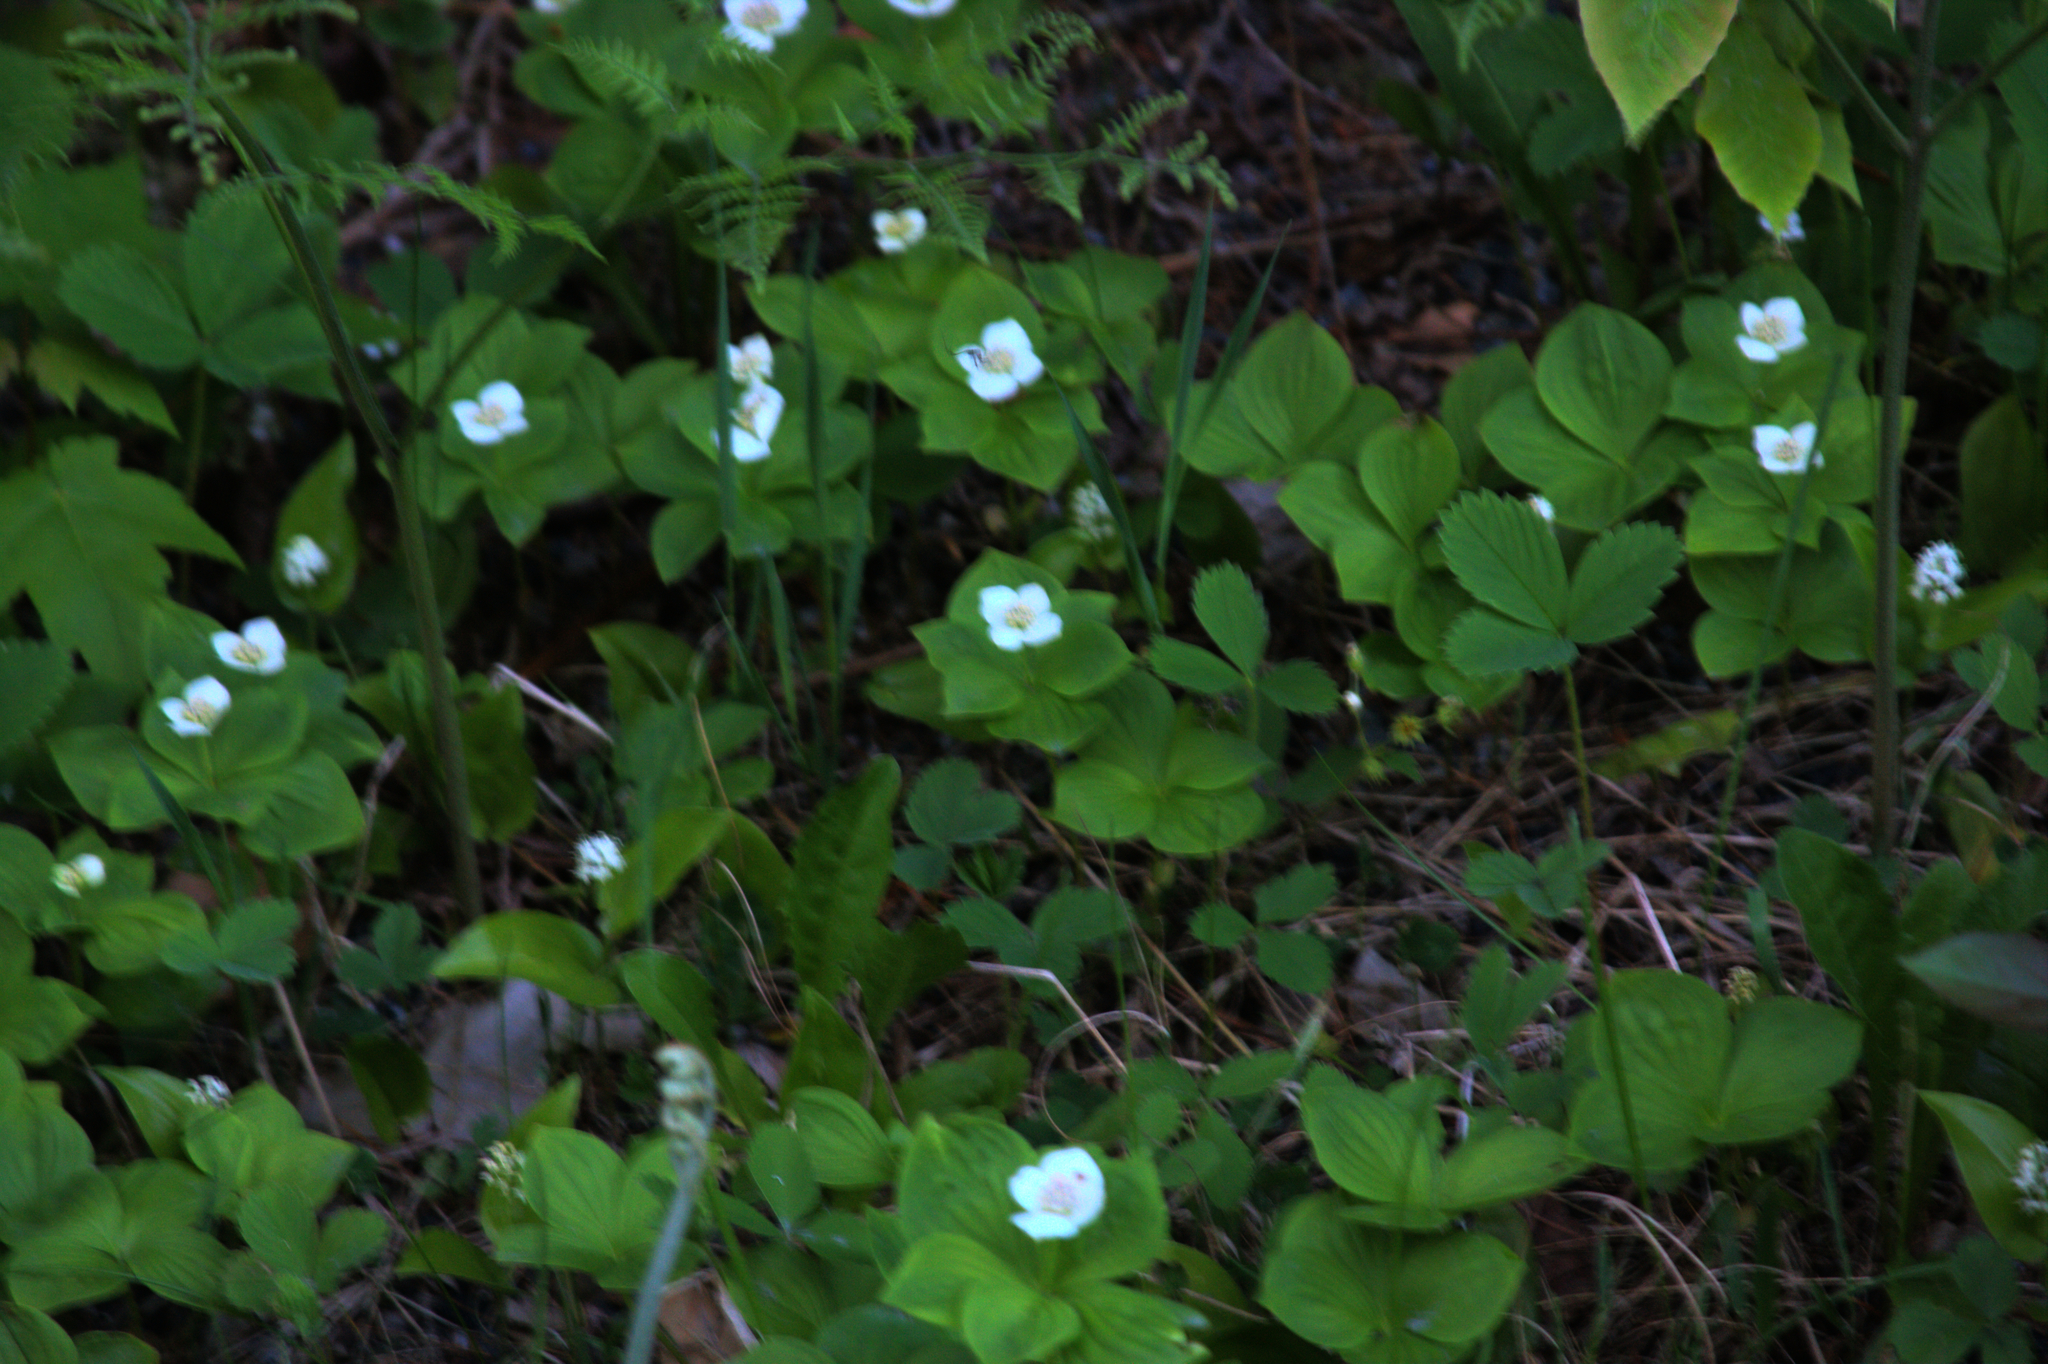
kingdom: Plantae
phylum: Tracheophyta
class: Magnoliopsida
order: Cornales
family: Cornaceae
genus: Cornus
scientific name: Cornus canadensis
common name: Creeping dogwood
